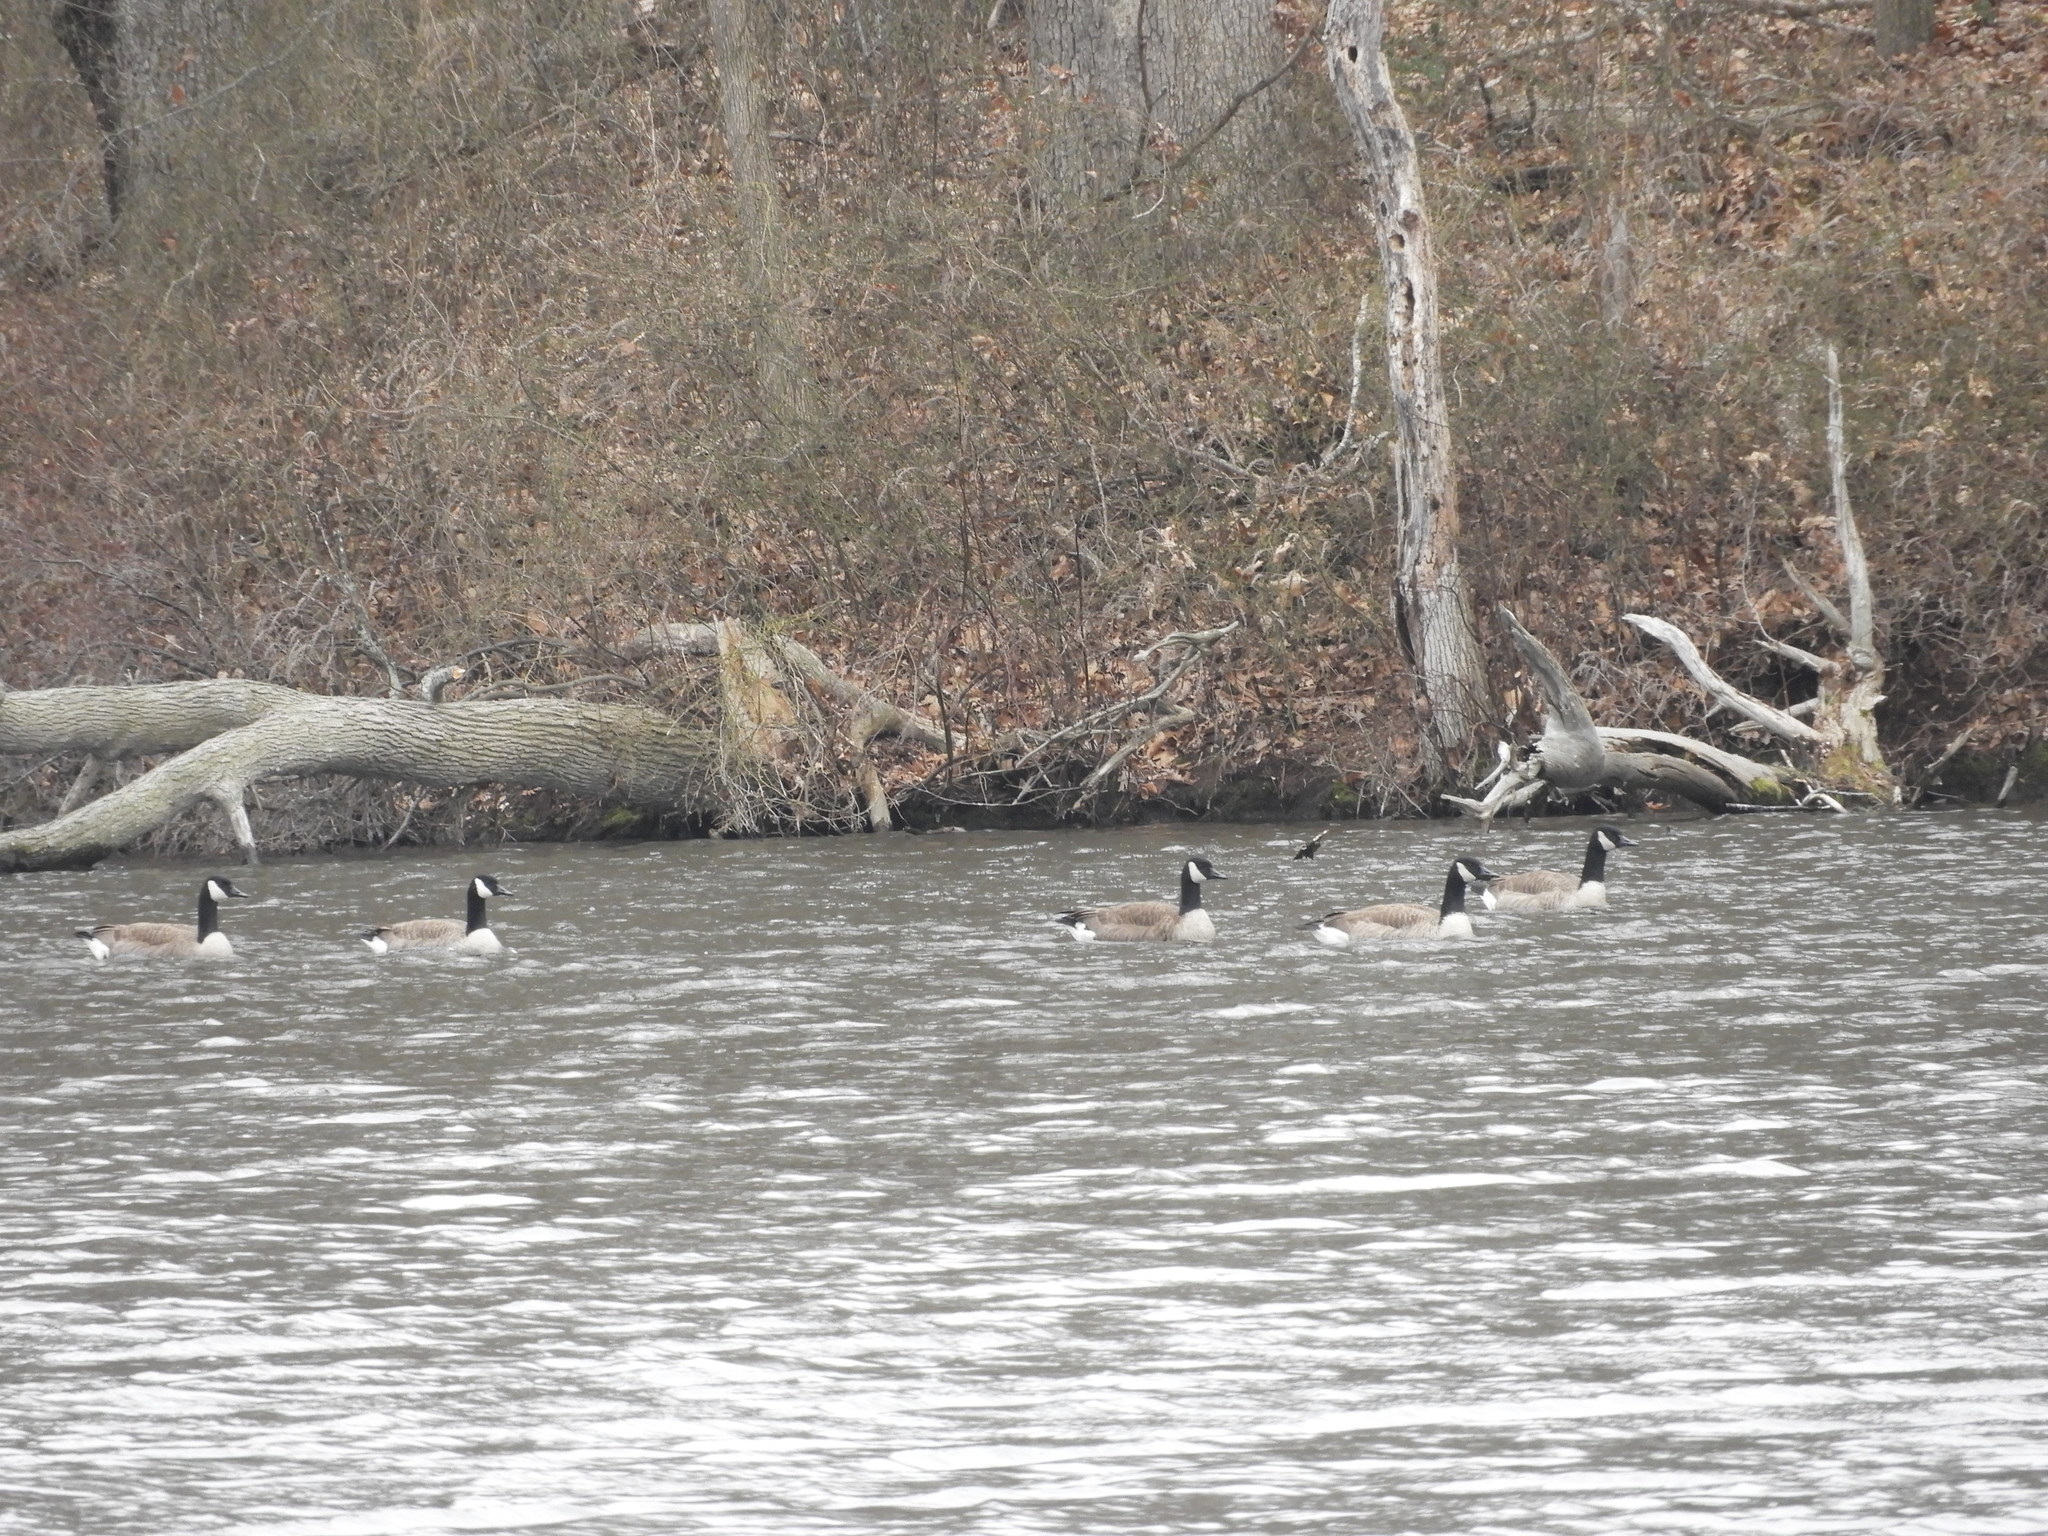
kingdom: Animalia
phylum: Chordata
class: Aves
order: Anseriformes
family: Anatidae
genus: Branta
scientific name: Branta canadensis
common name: Canada goose
